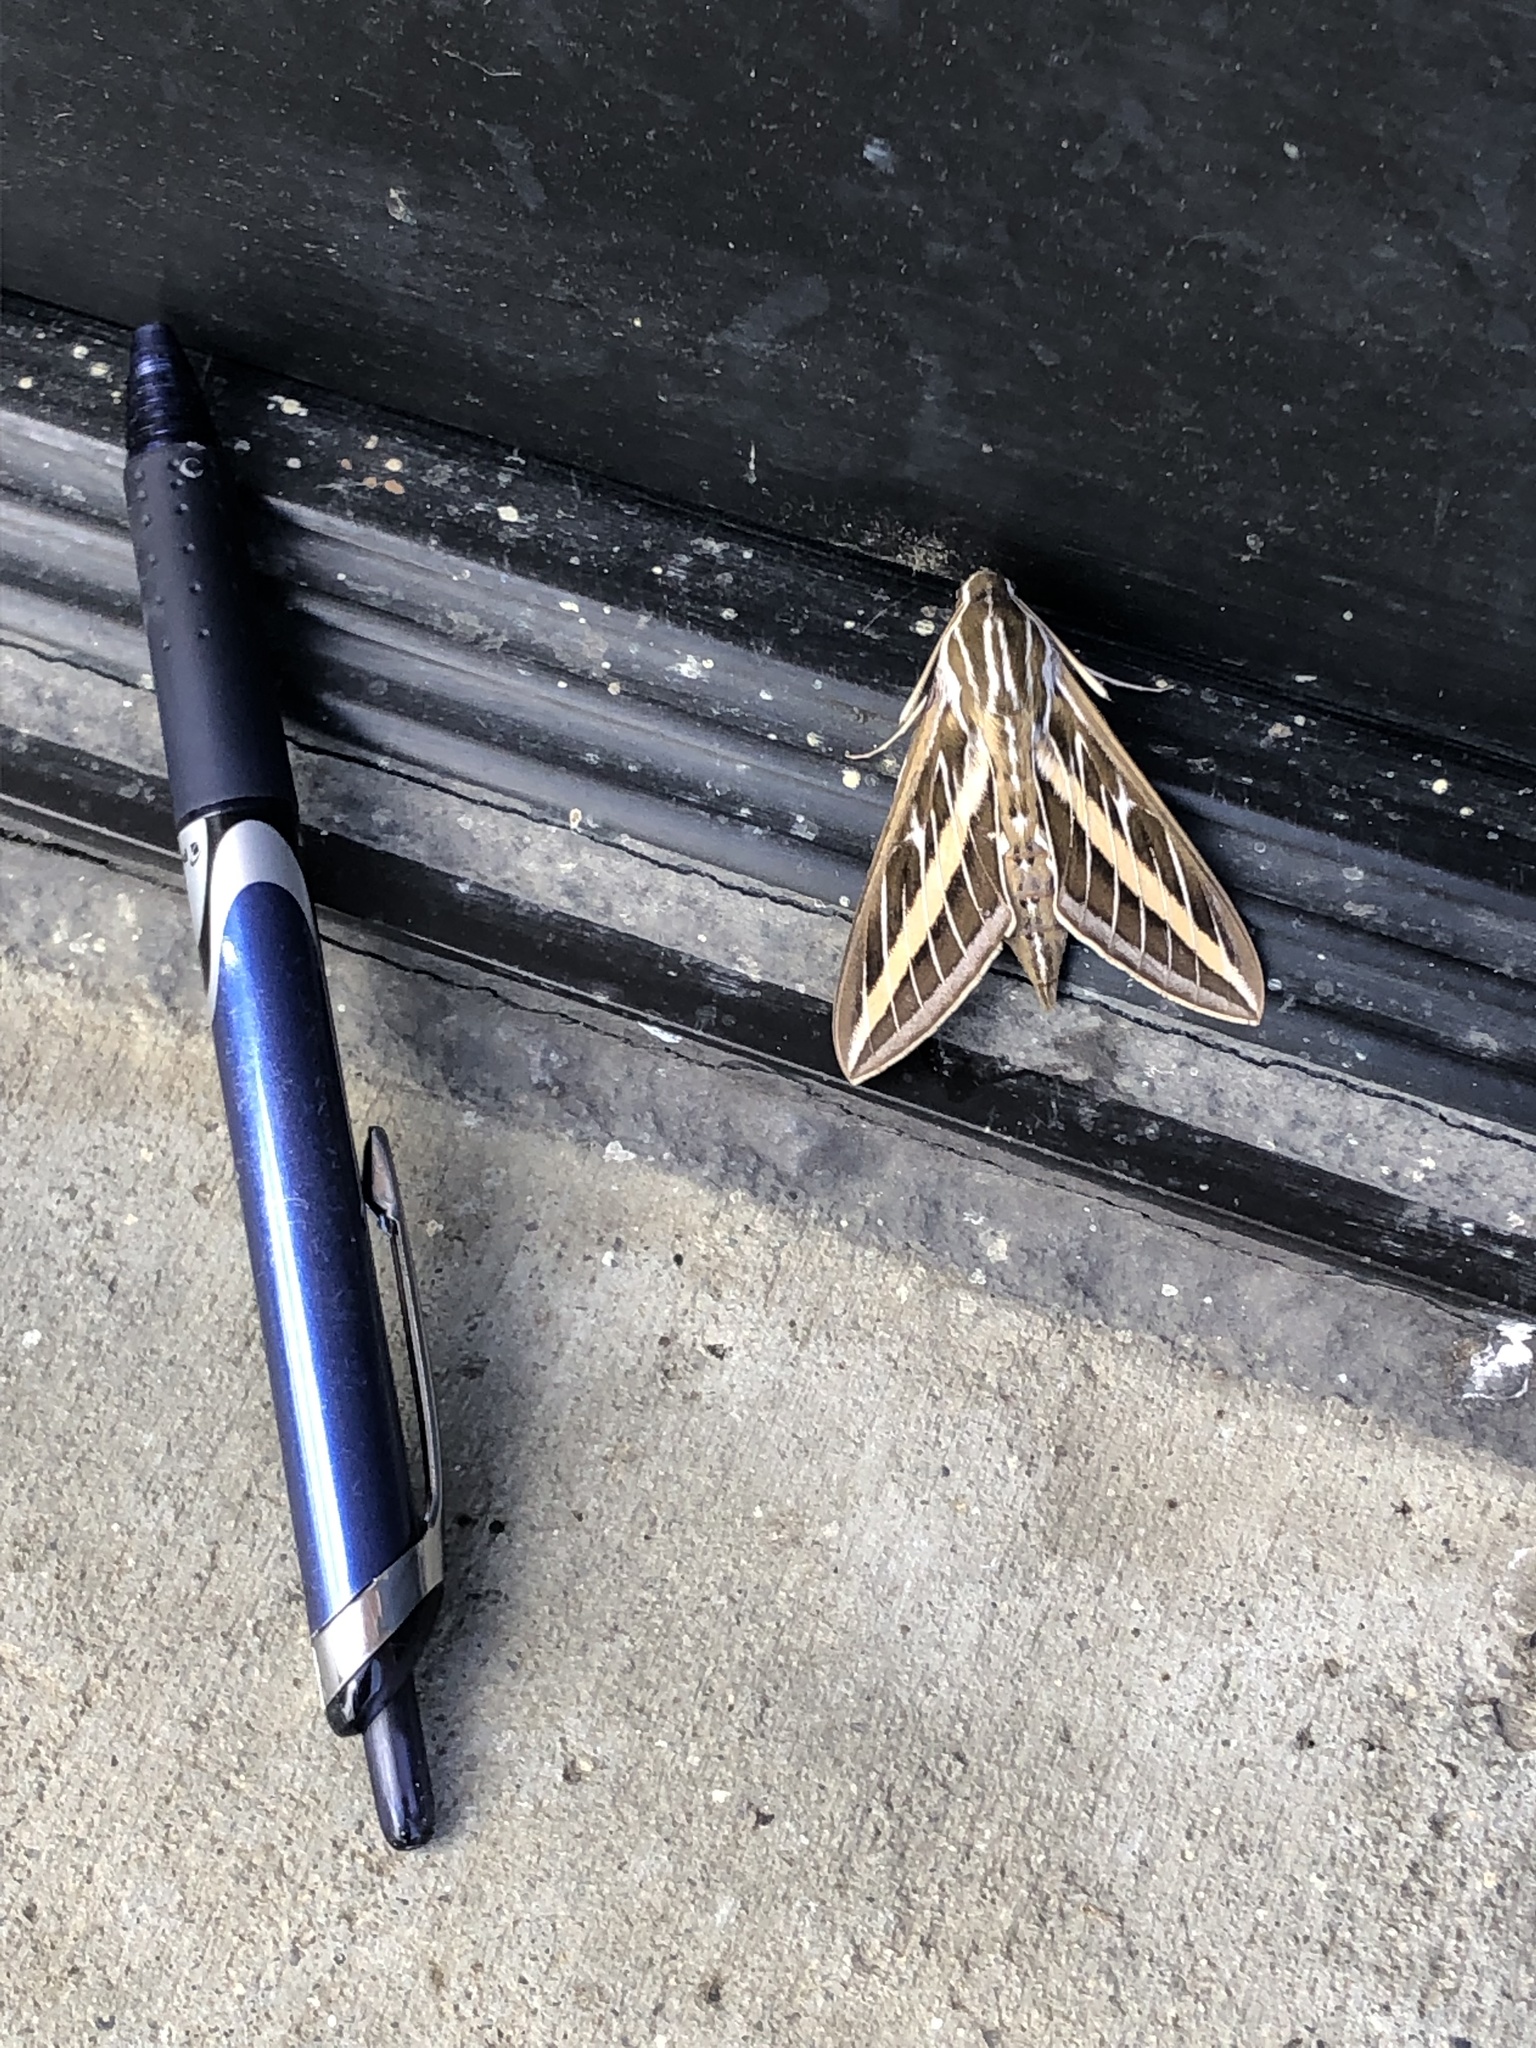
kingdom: Animalia
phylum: Arthropoda
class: Insecta
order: Lepidoptera
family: Sphingidae
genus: Hyles
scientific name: Hyles lineata
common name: White-lined sphinx
